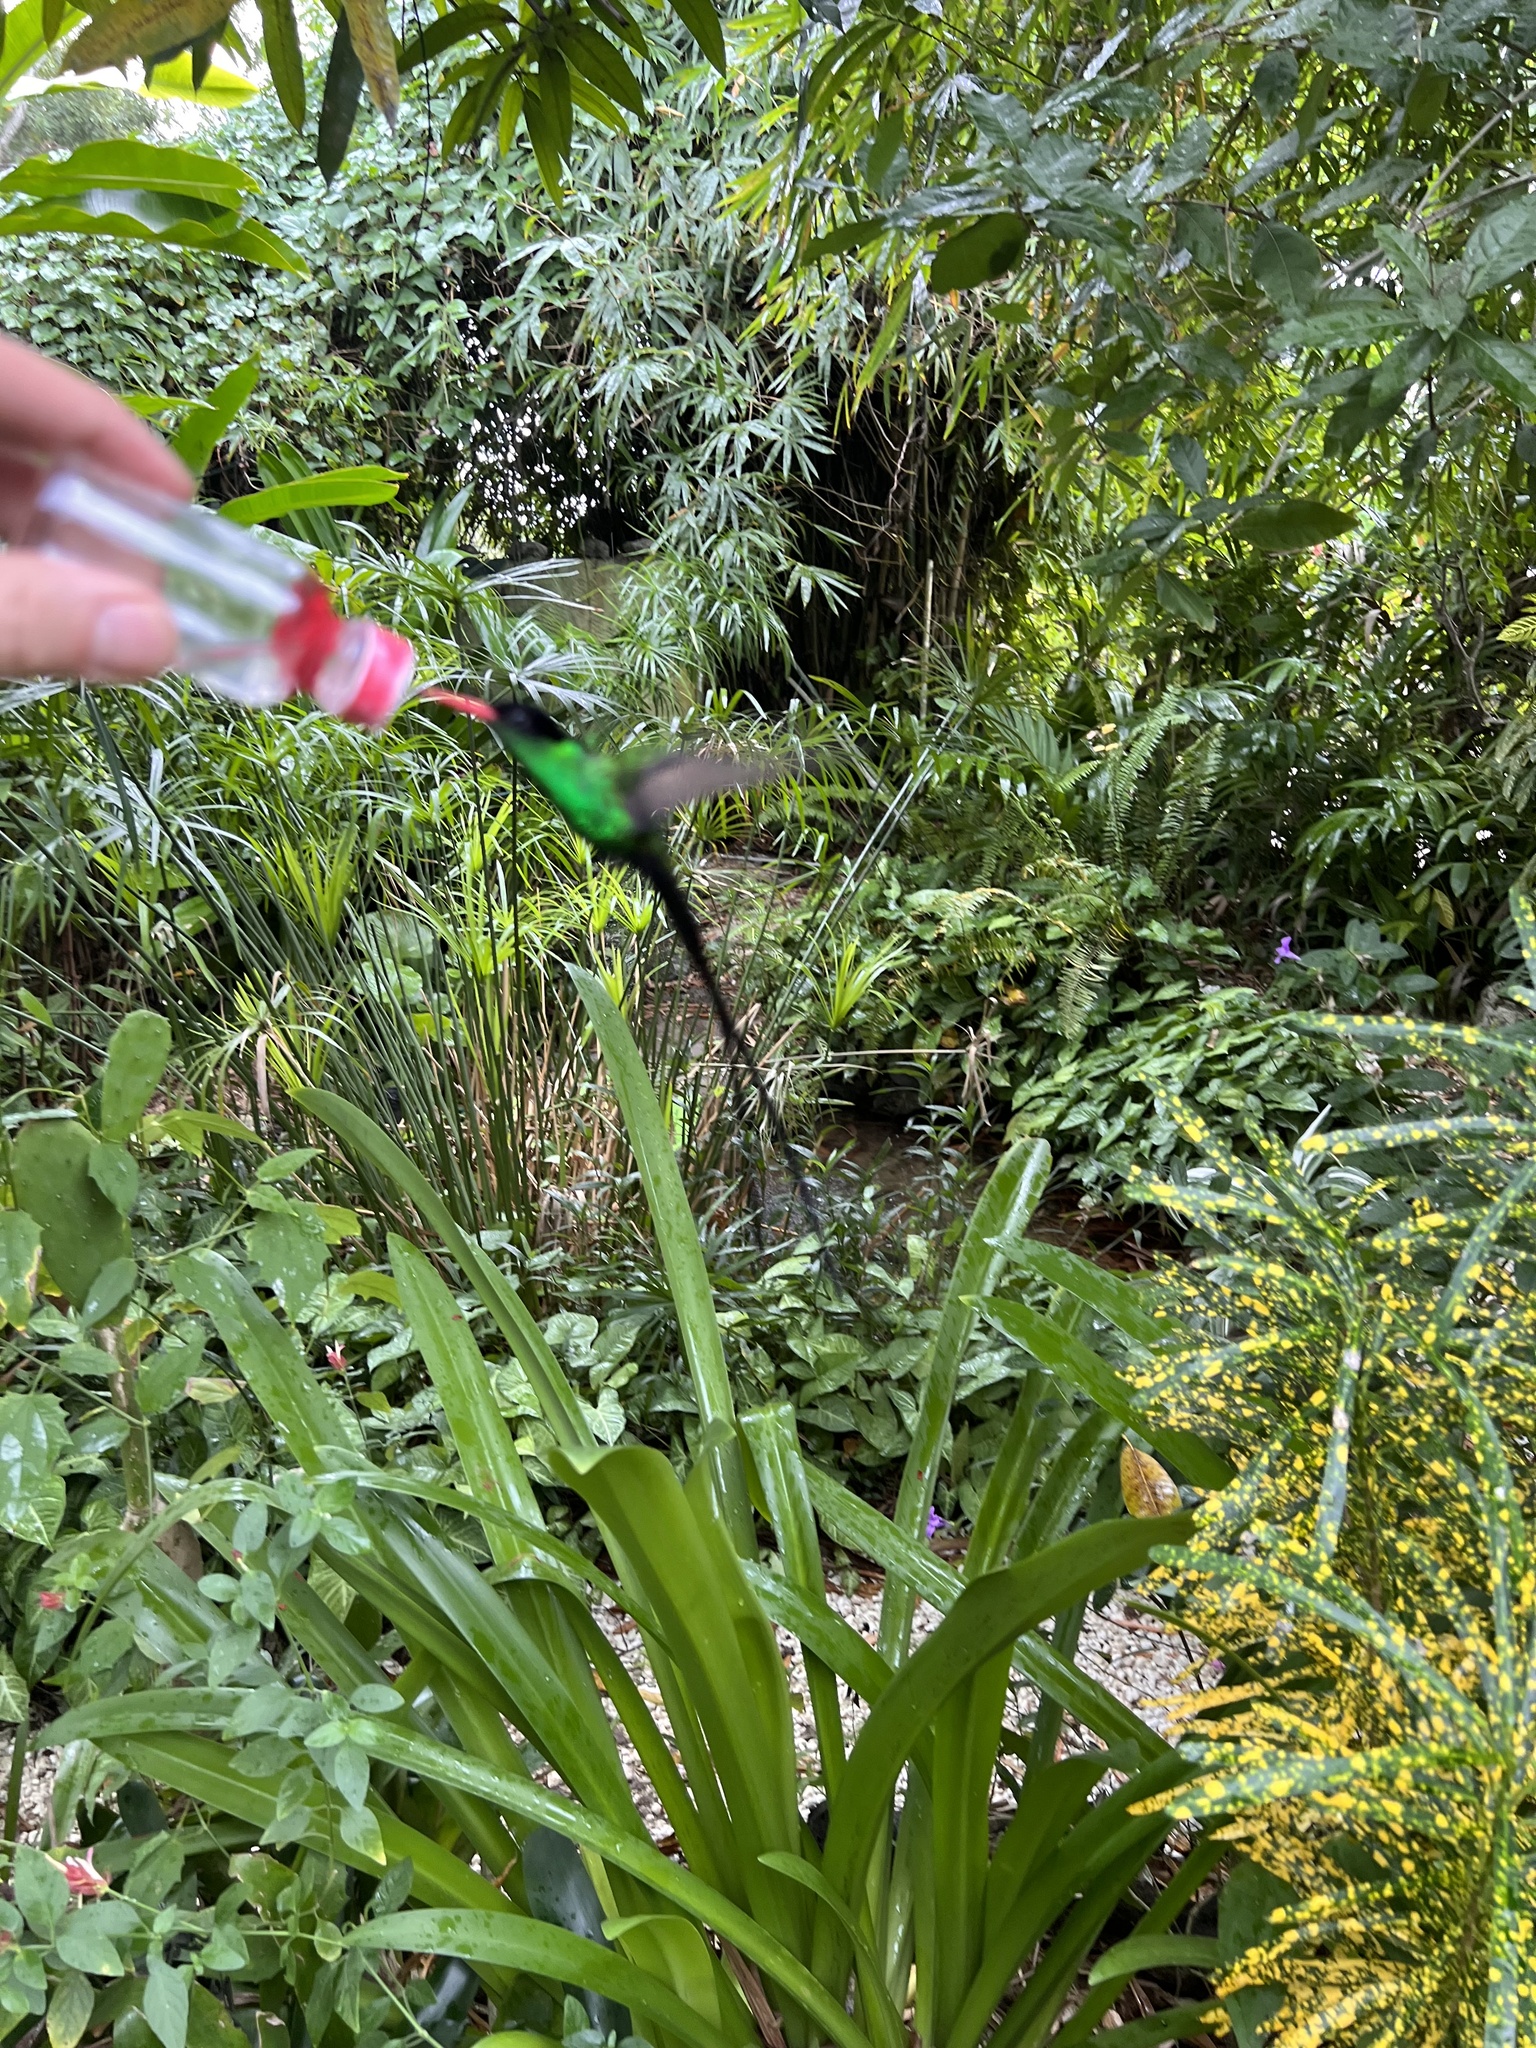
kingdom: Animalia
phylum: Chordata
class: Aves
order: Apodiformes
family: Trochilidae
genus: Trochilus
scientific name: Trochilus polytmus
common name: Red-billed streamertail
